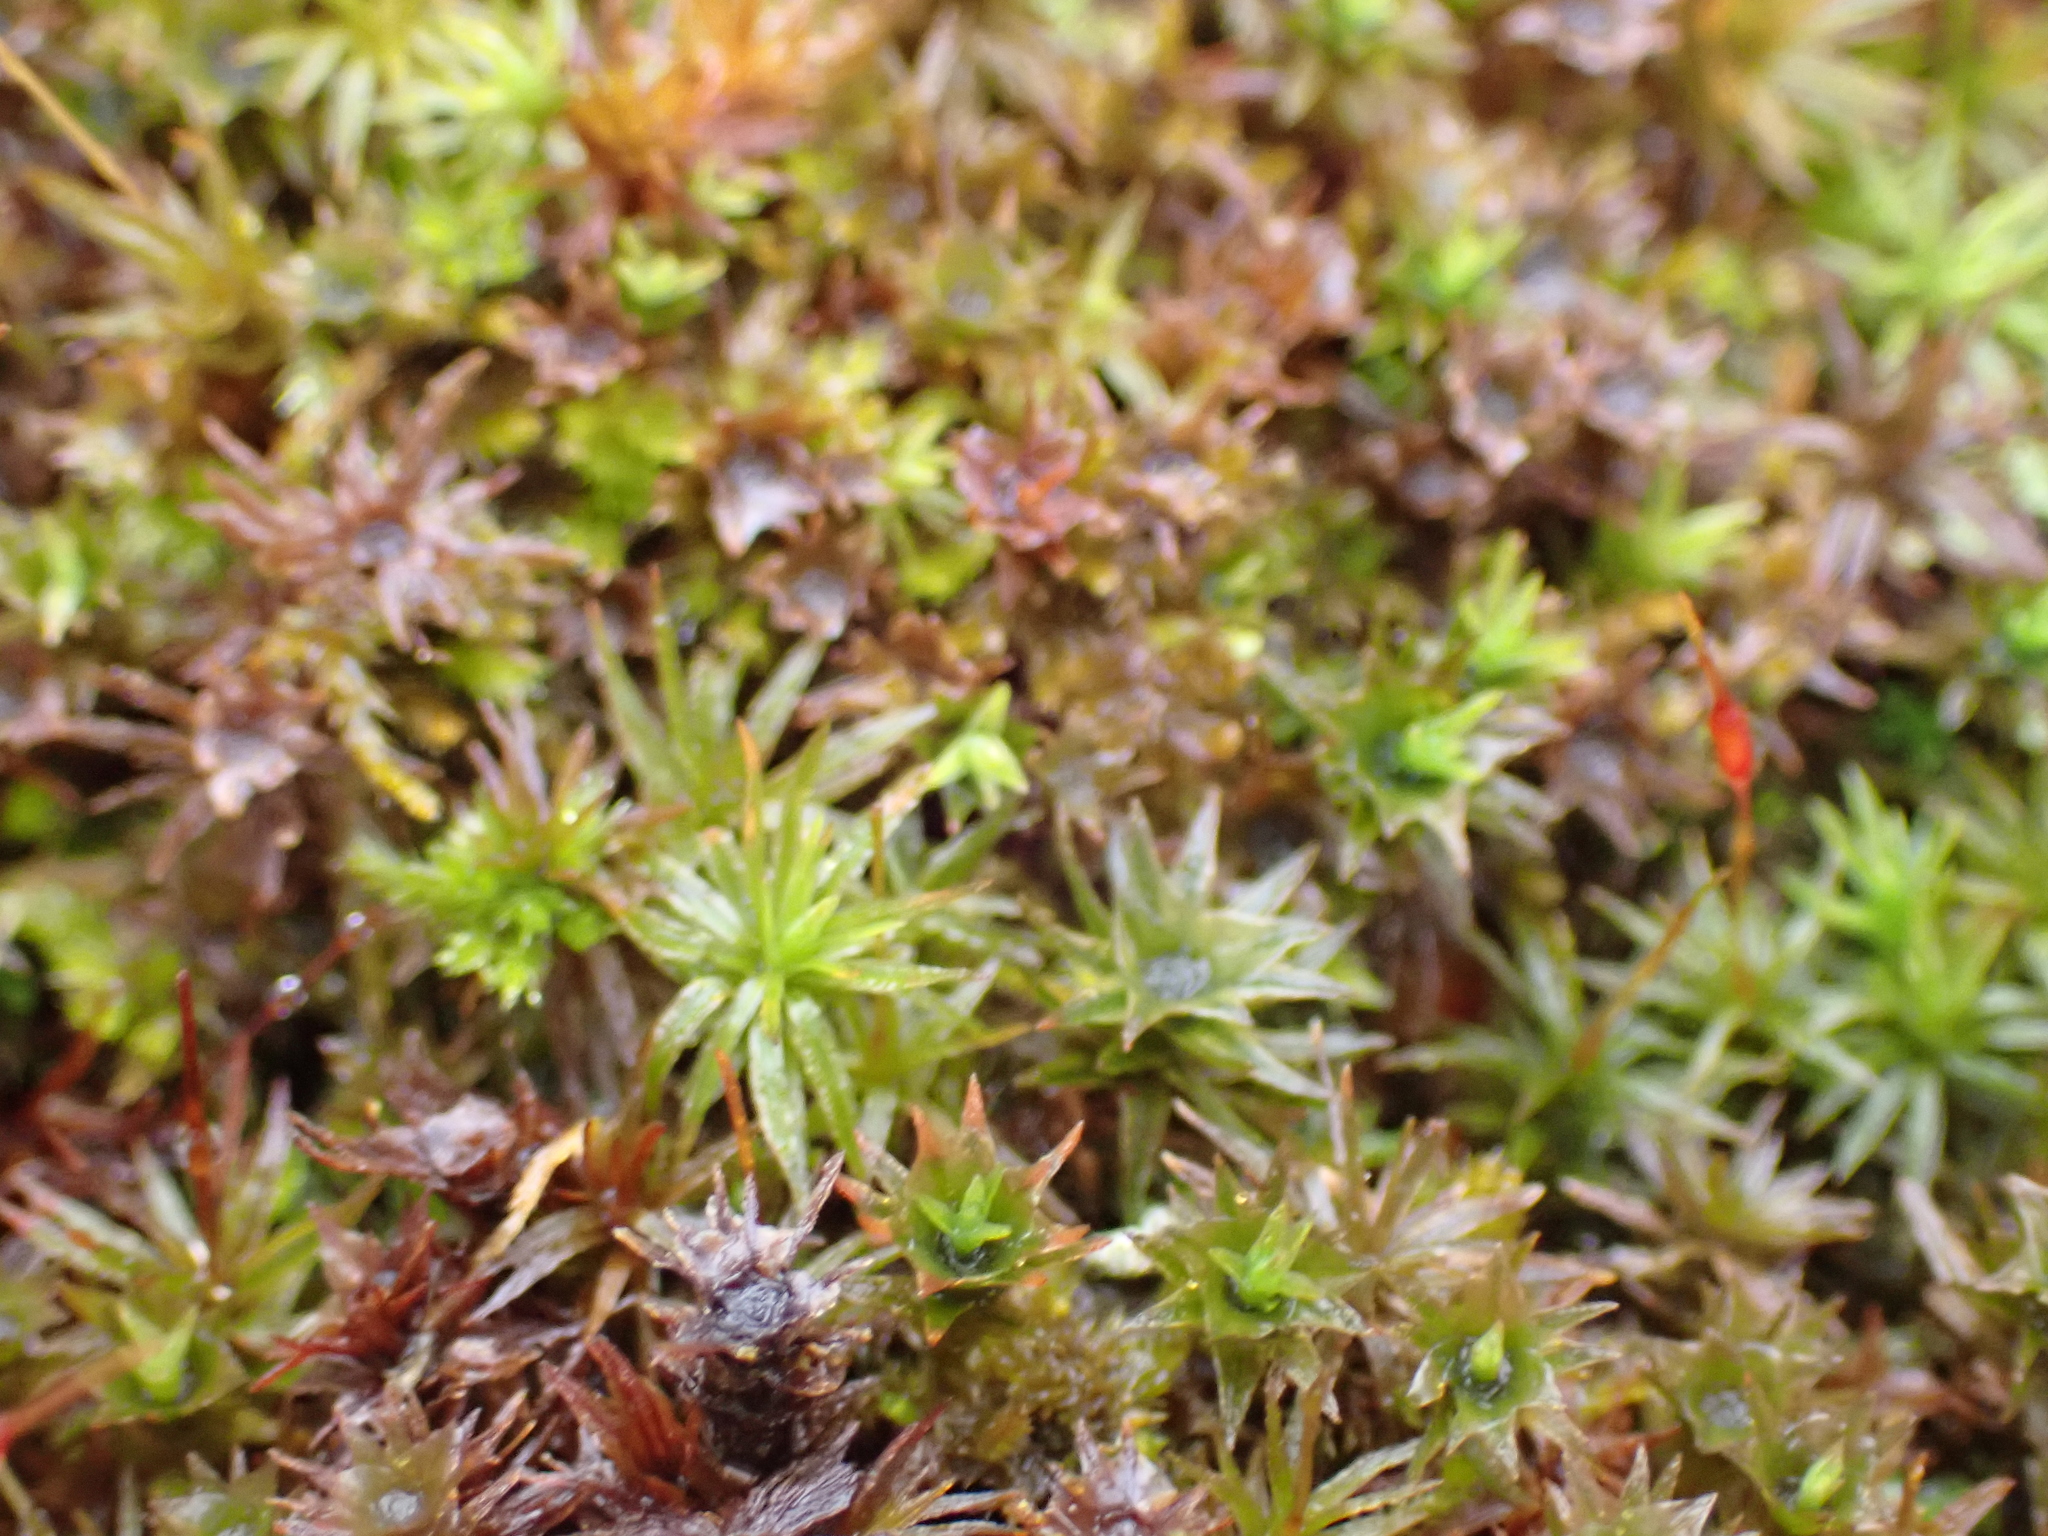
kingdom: Plantae
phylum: Bryophyta
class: Polytrichopsida
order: Polytrichales
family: Polytrichaceae
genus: Atrichum
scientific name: Atrichum angustatum
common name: Lesser smoothcap
